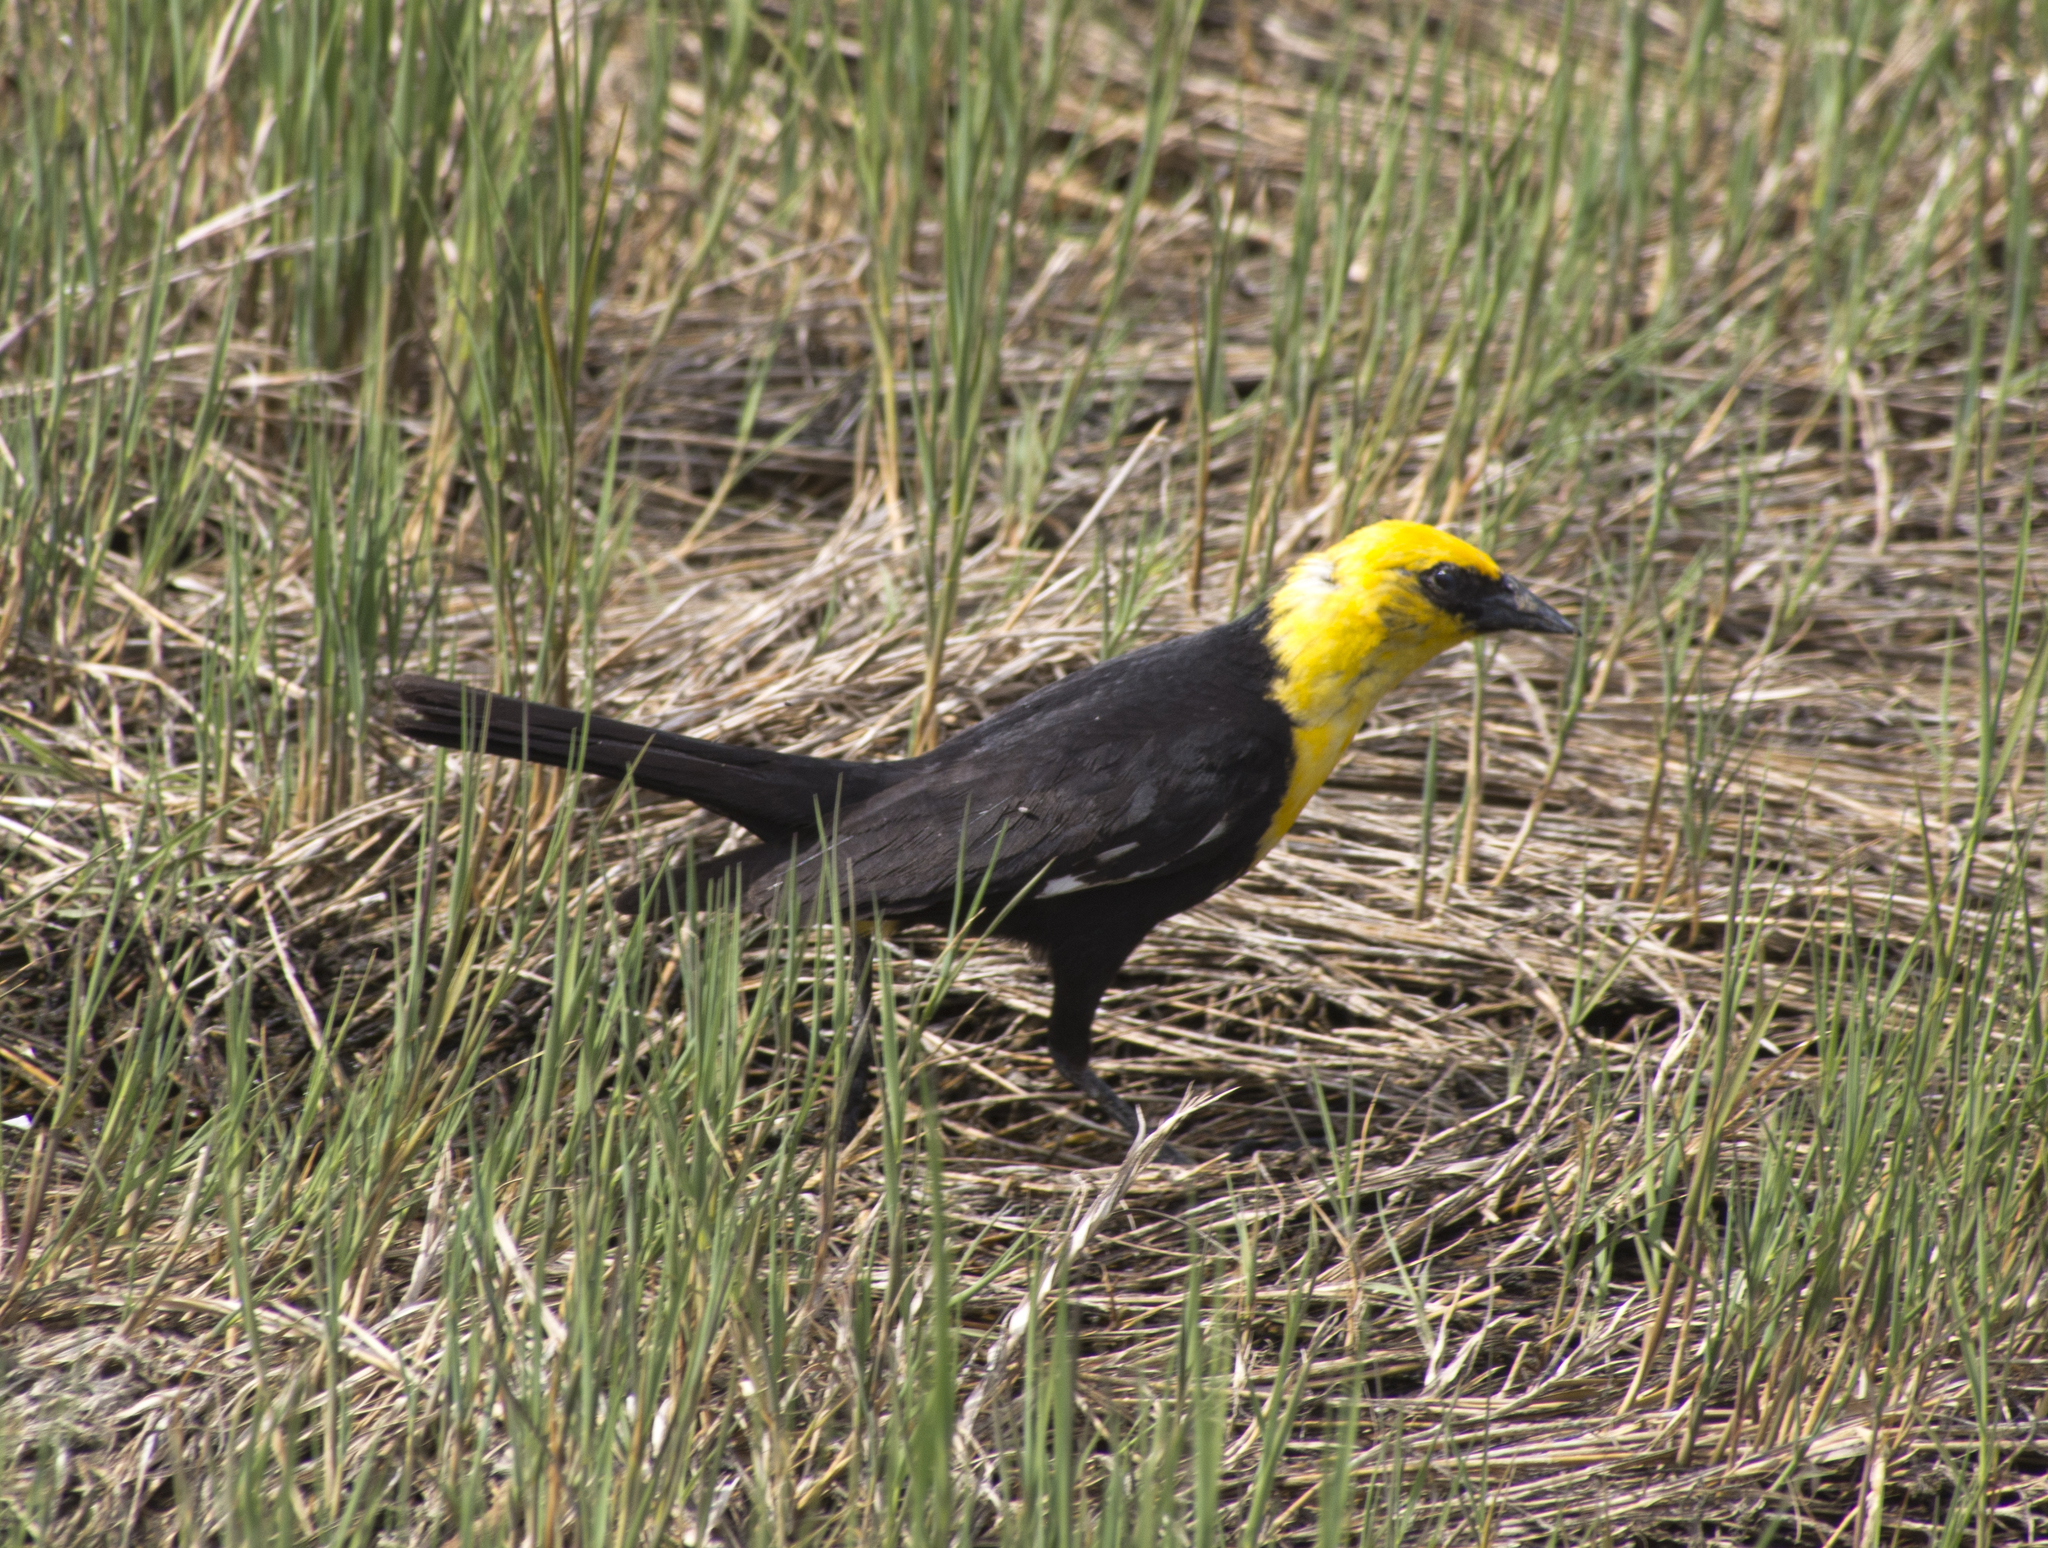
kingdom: Animalia
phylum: Chordata
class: Aves
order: Passeriformes
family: Icteridae
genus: Xanthocephalus
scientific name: Xanthocephalus xanthocephalus
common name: Yellow-headed blackbird
